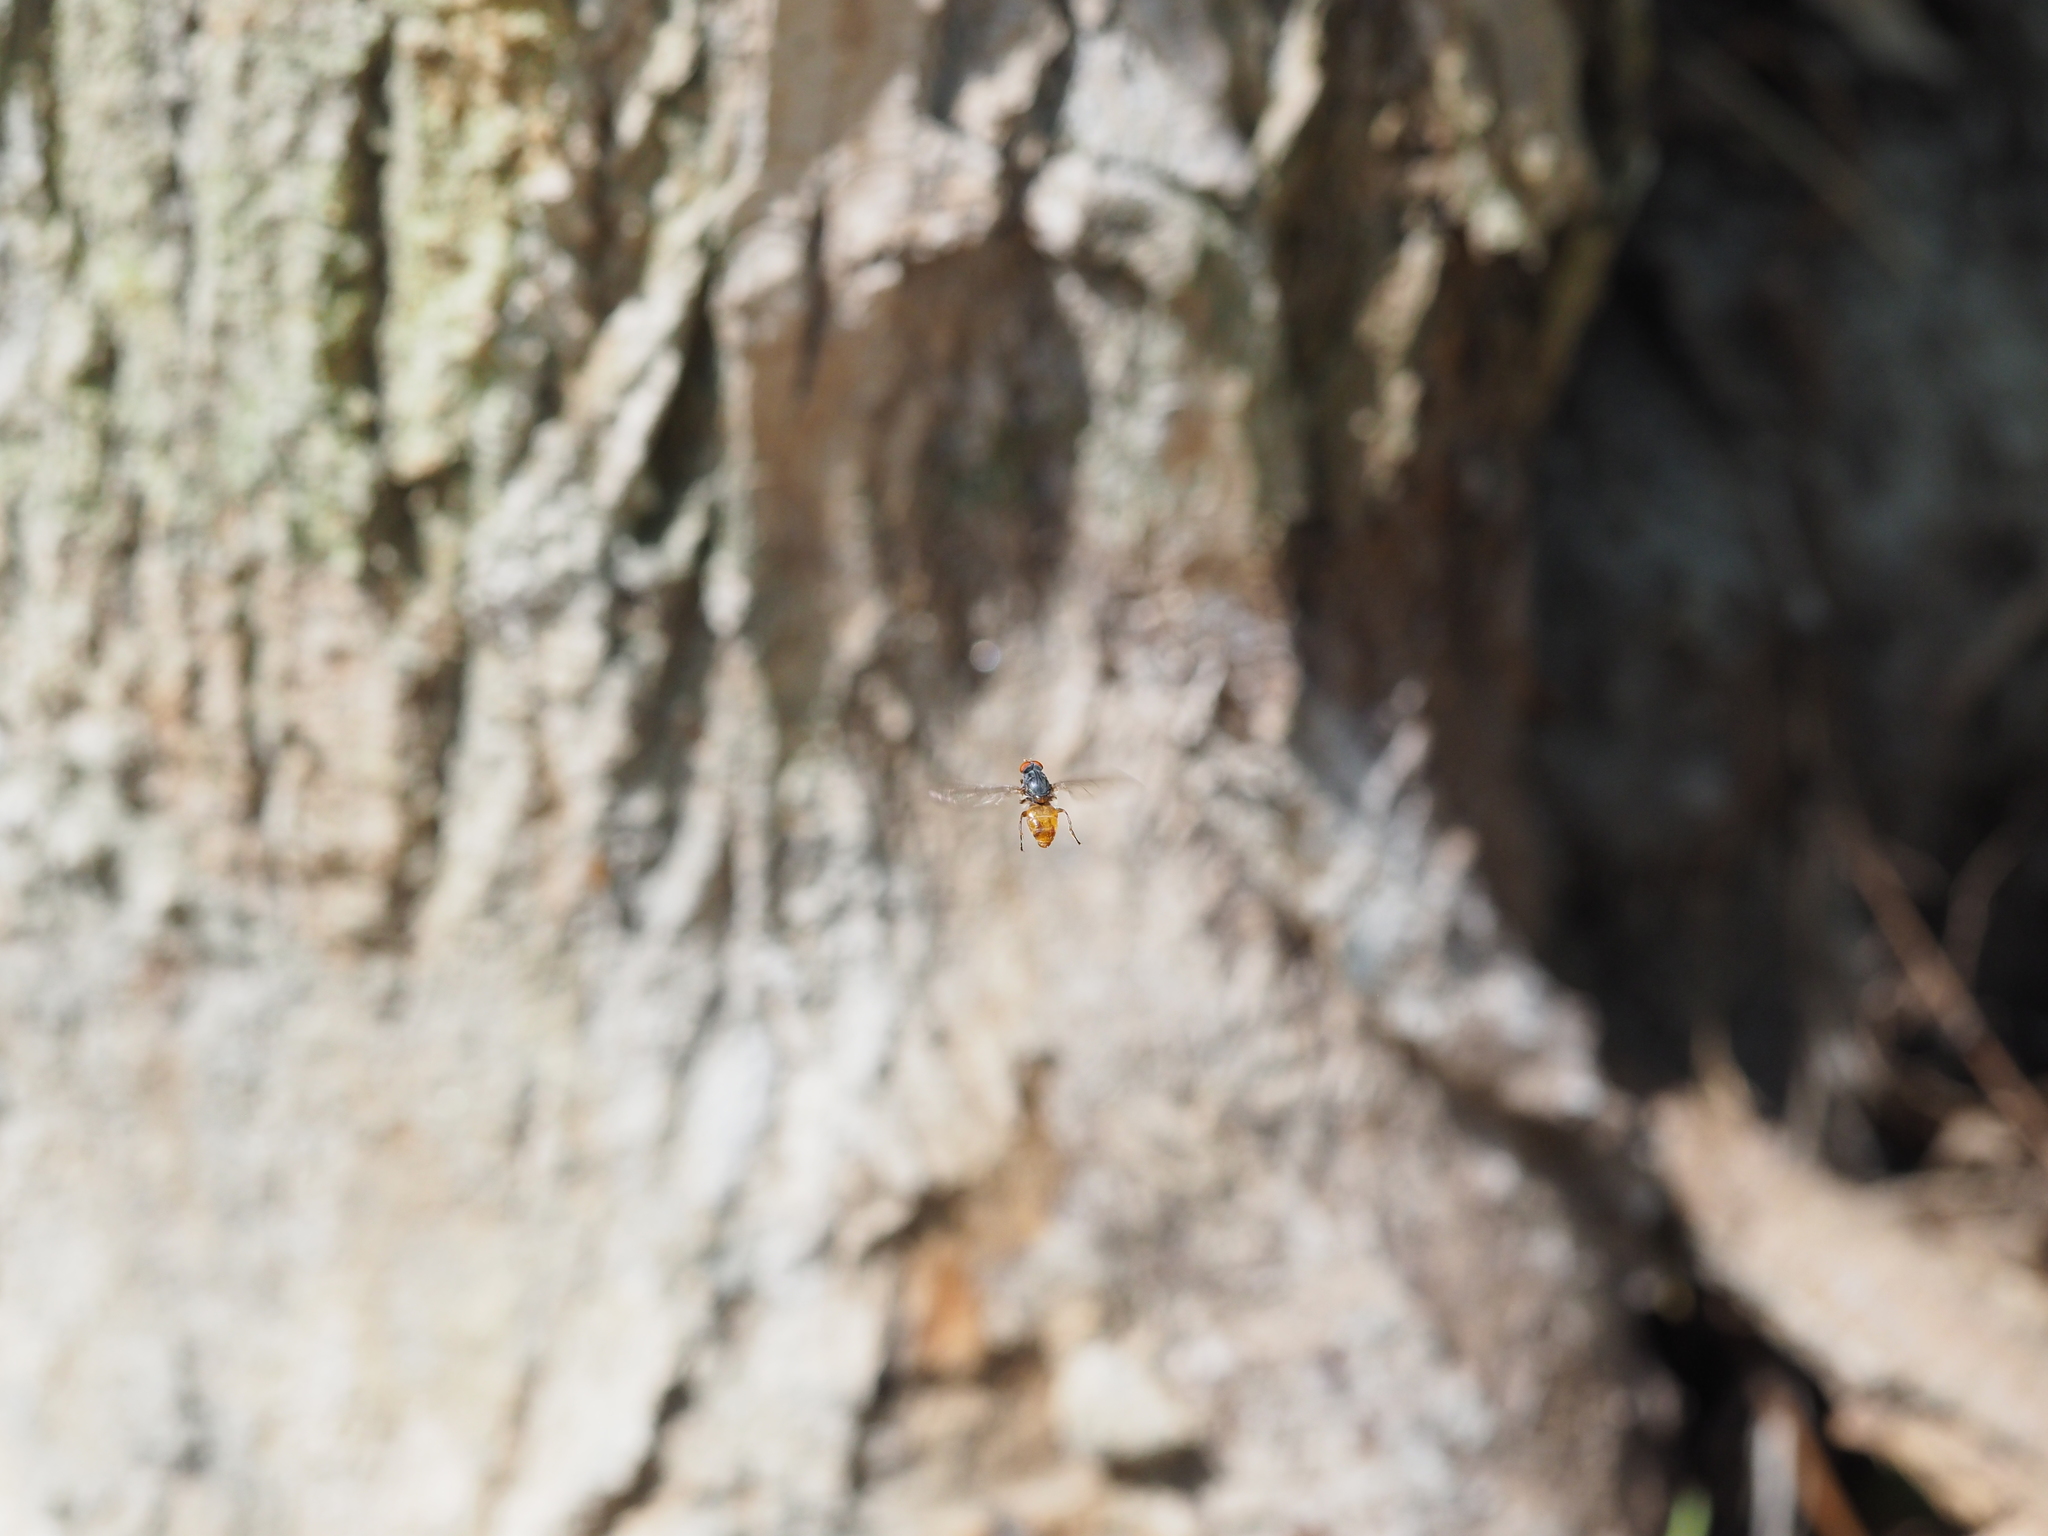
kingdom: Animalia
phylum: Arthropoda
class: Insecta
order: Diptera
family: Syrphidae
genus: Brachyopa
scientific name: Brachyopa insensilis
